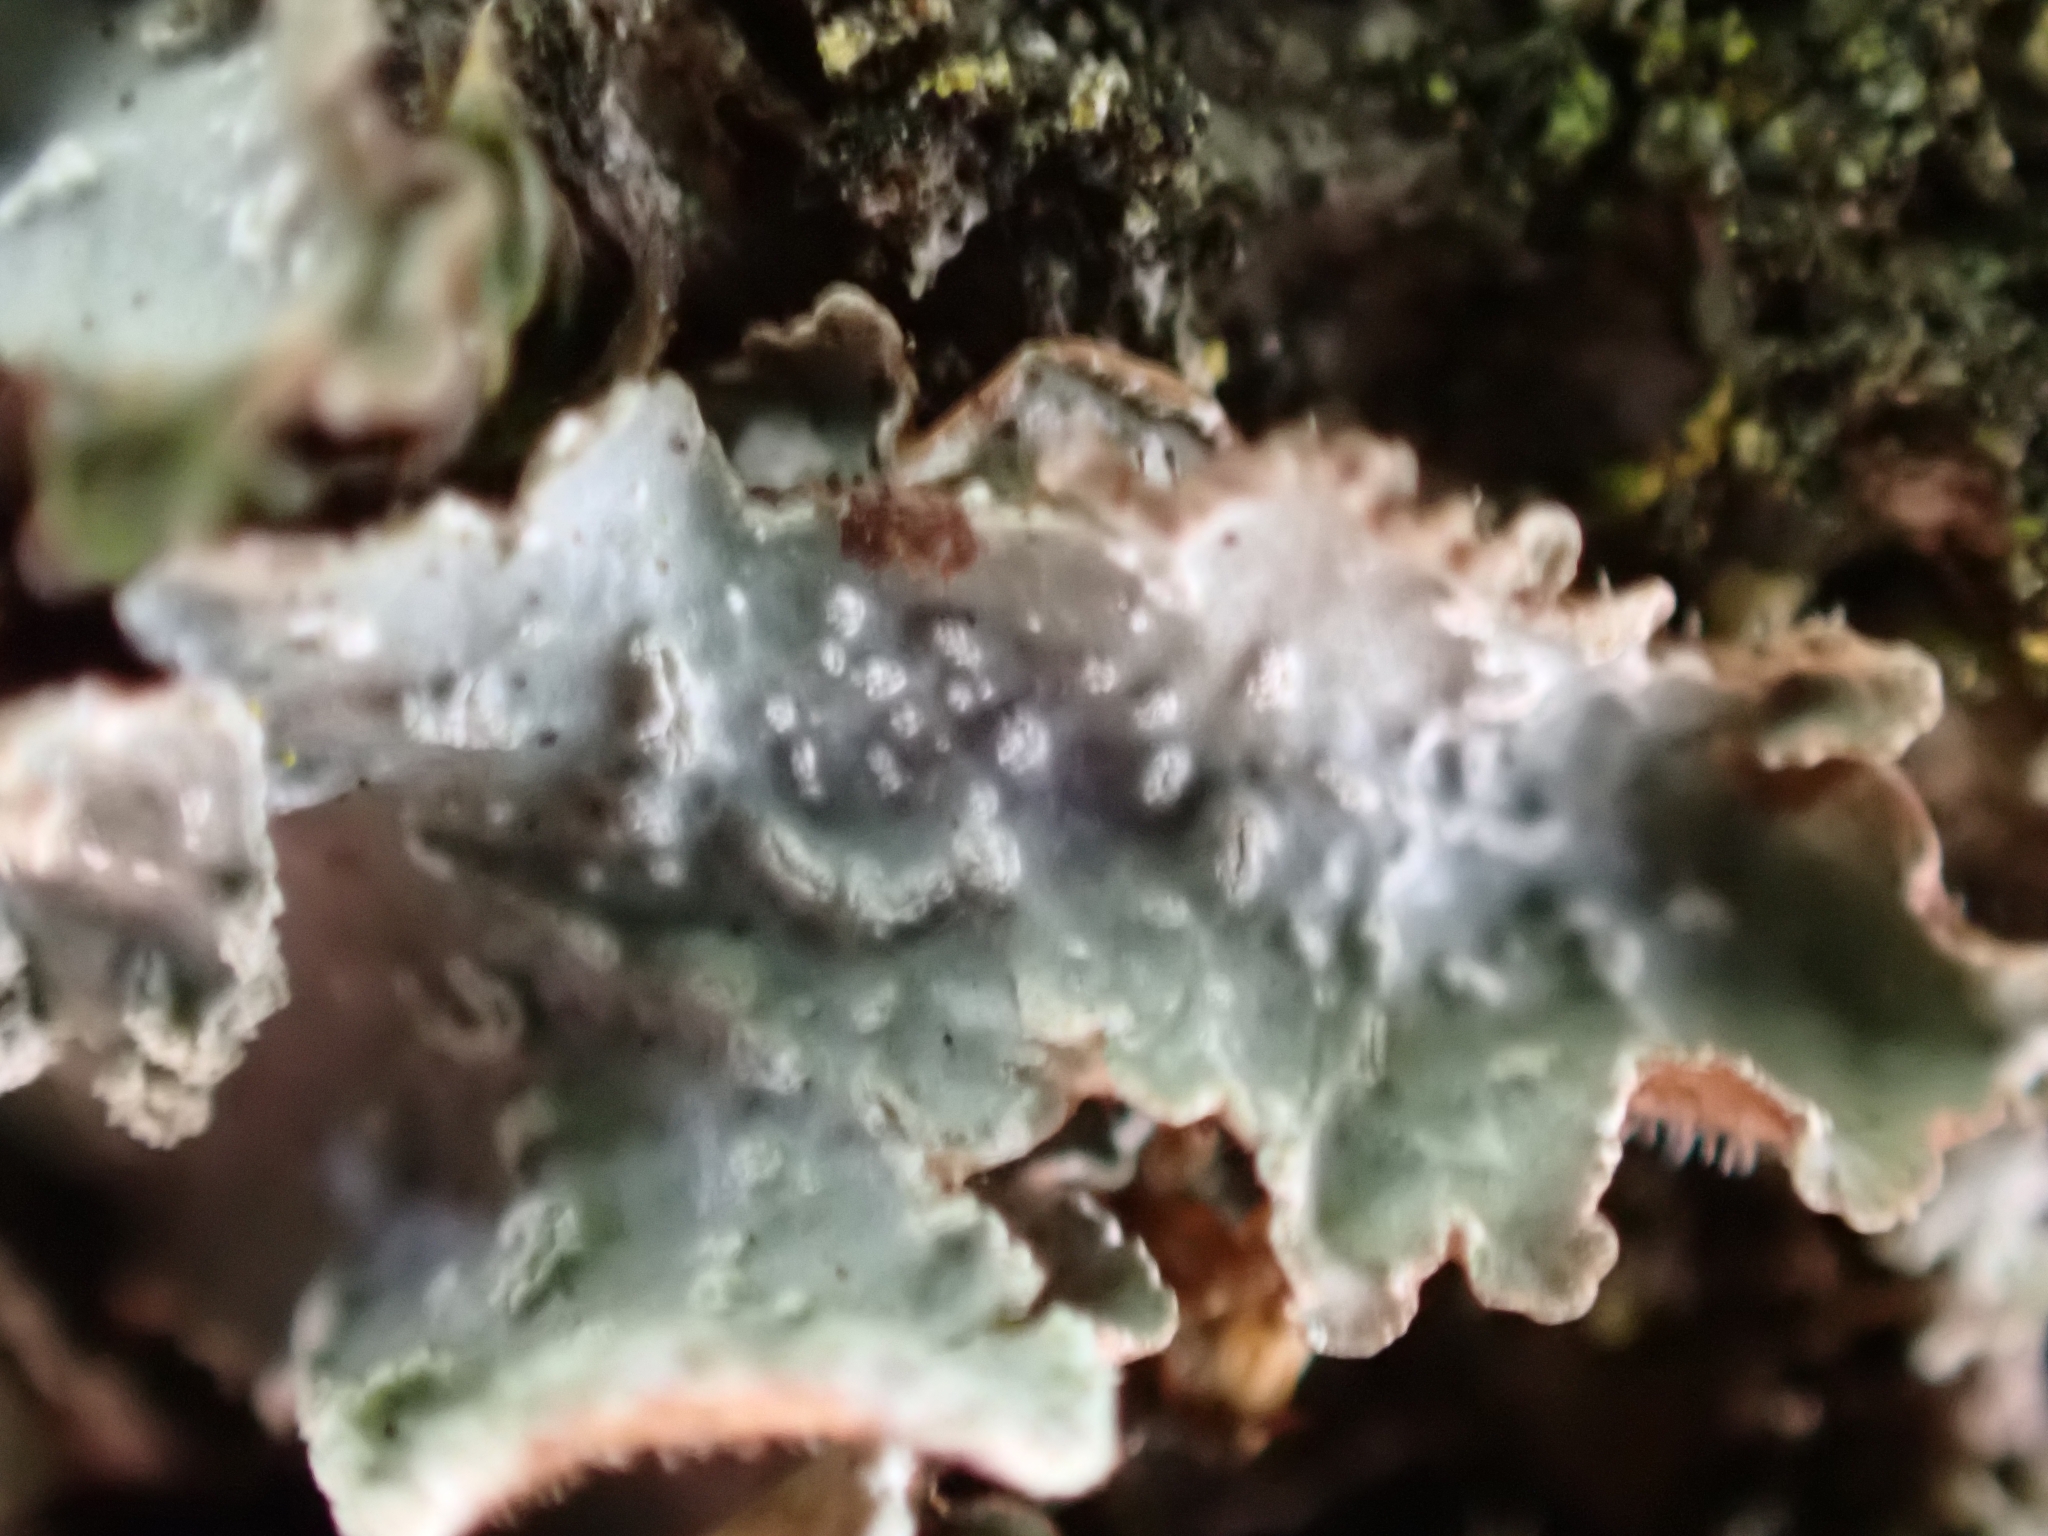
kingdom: Fungi
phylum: Ascomycota
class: Lecanoromycetes
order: Lecanorales
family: Parmeliaceae
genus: Punctelia
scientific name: Punctelia jeckeri
